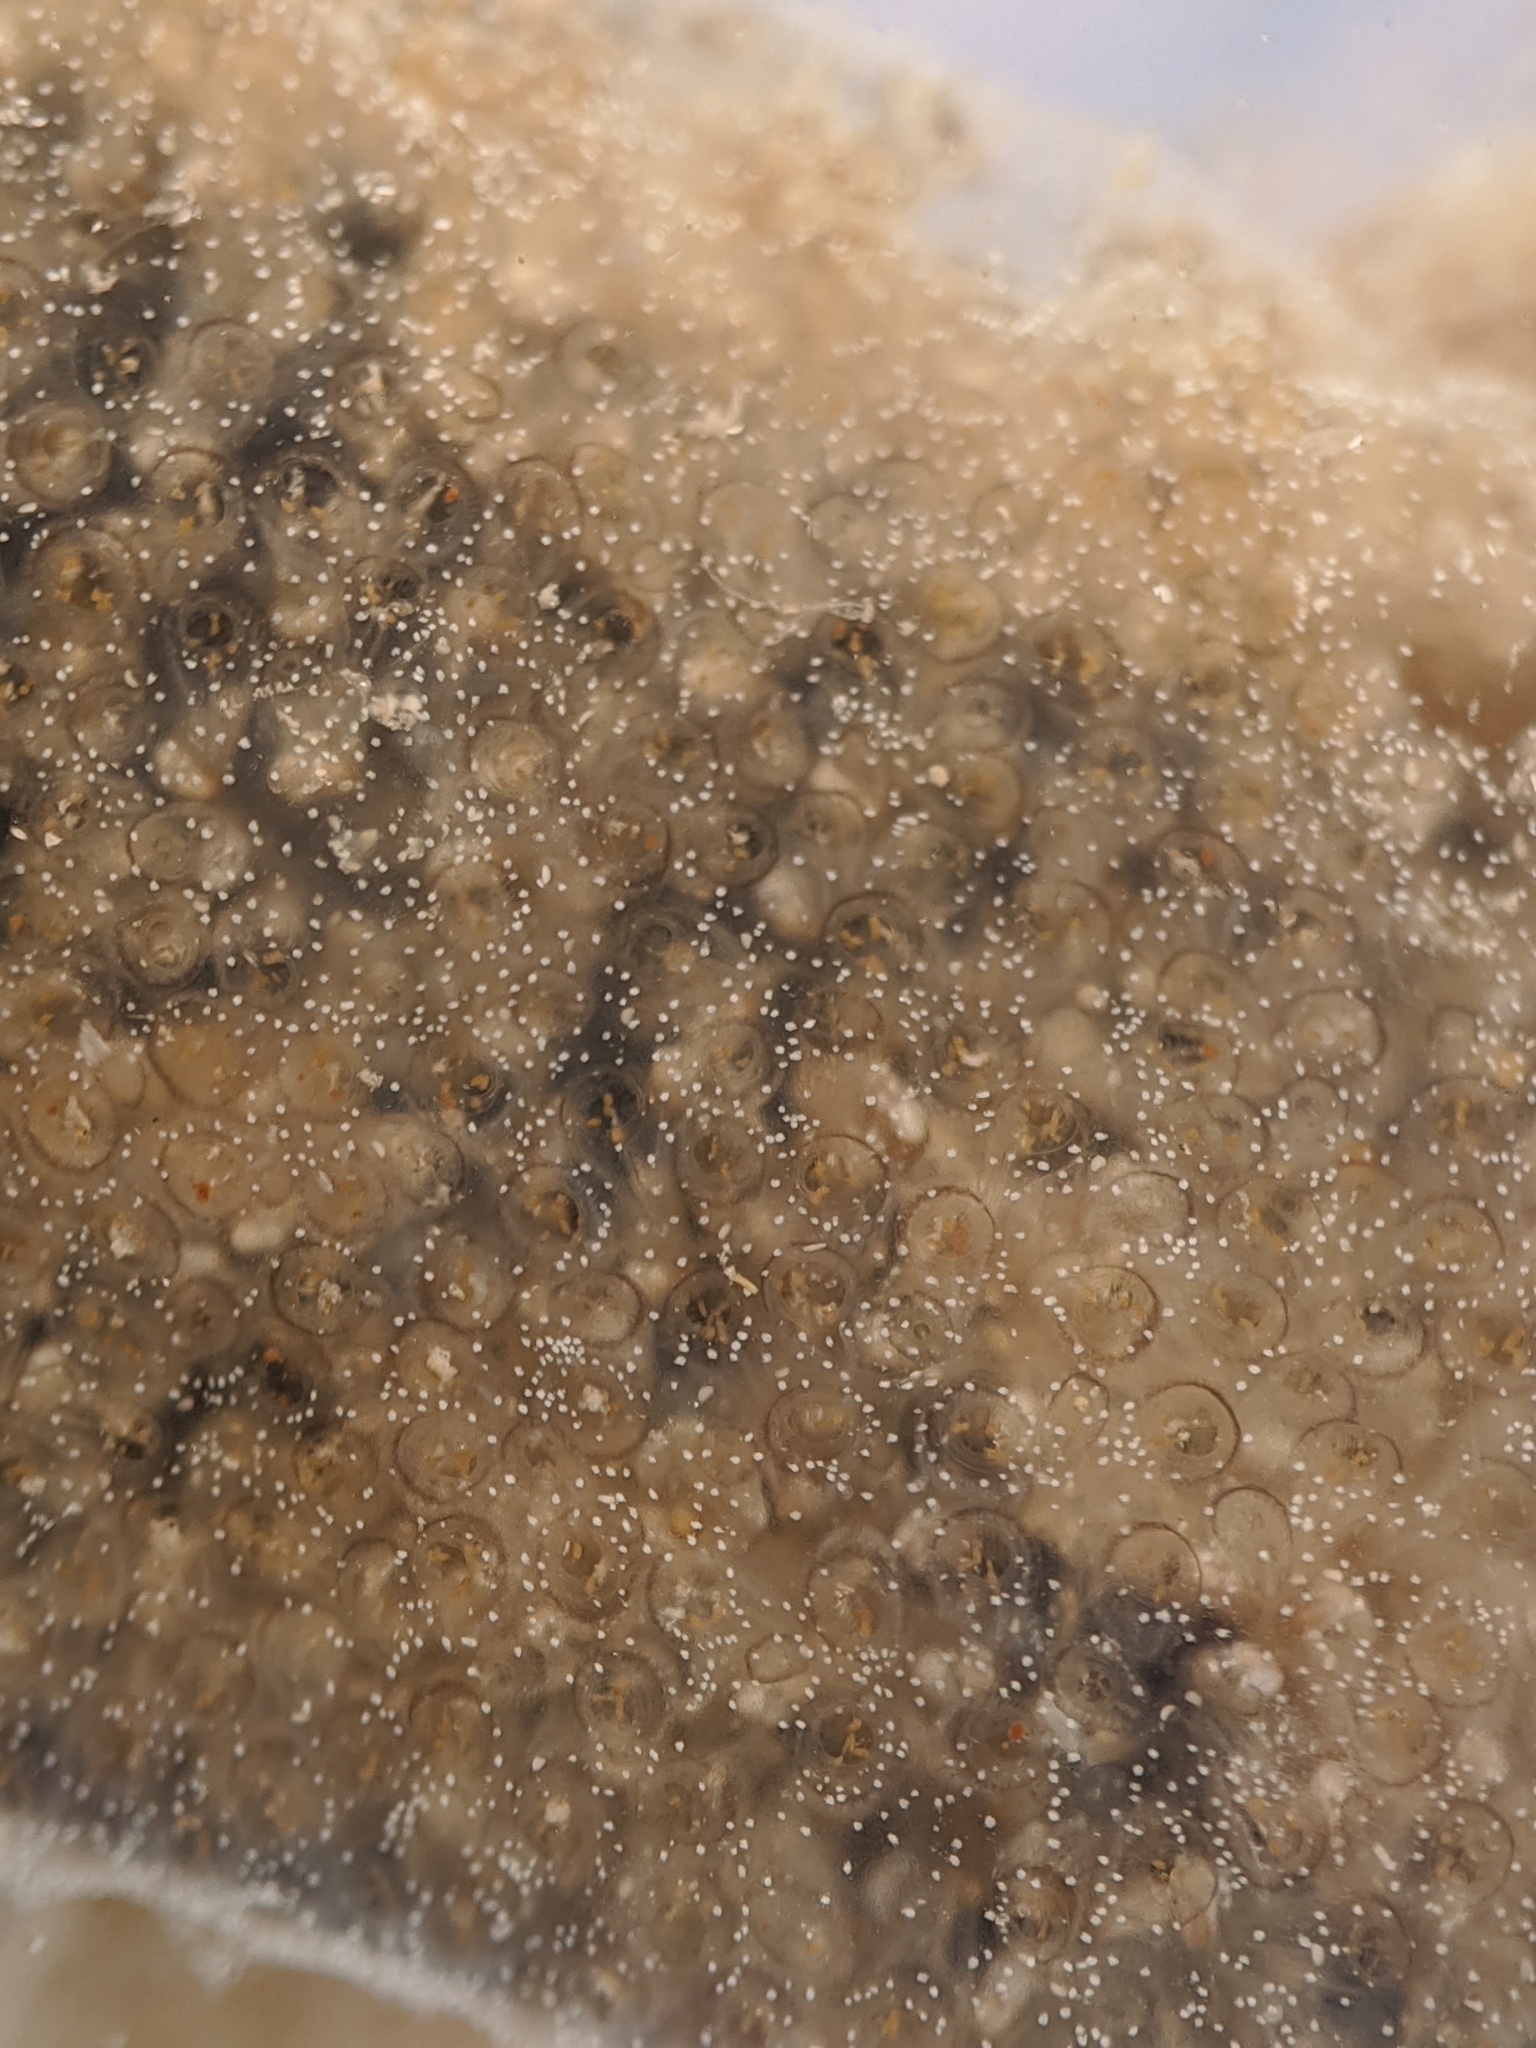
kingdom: Animalia
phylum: Chordata
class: Ascidiacea
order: Aplousobranchia
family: Didemnidae
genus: Diplosoma
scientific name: Diplosoma listerianum
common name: Compound sea squirt
